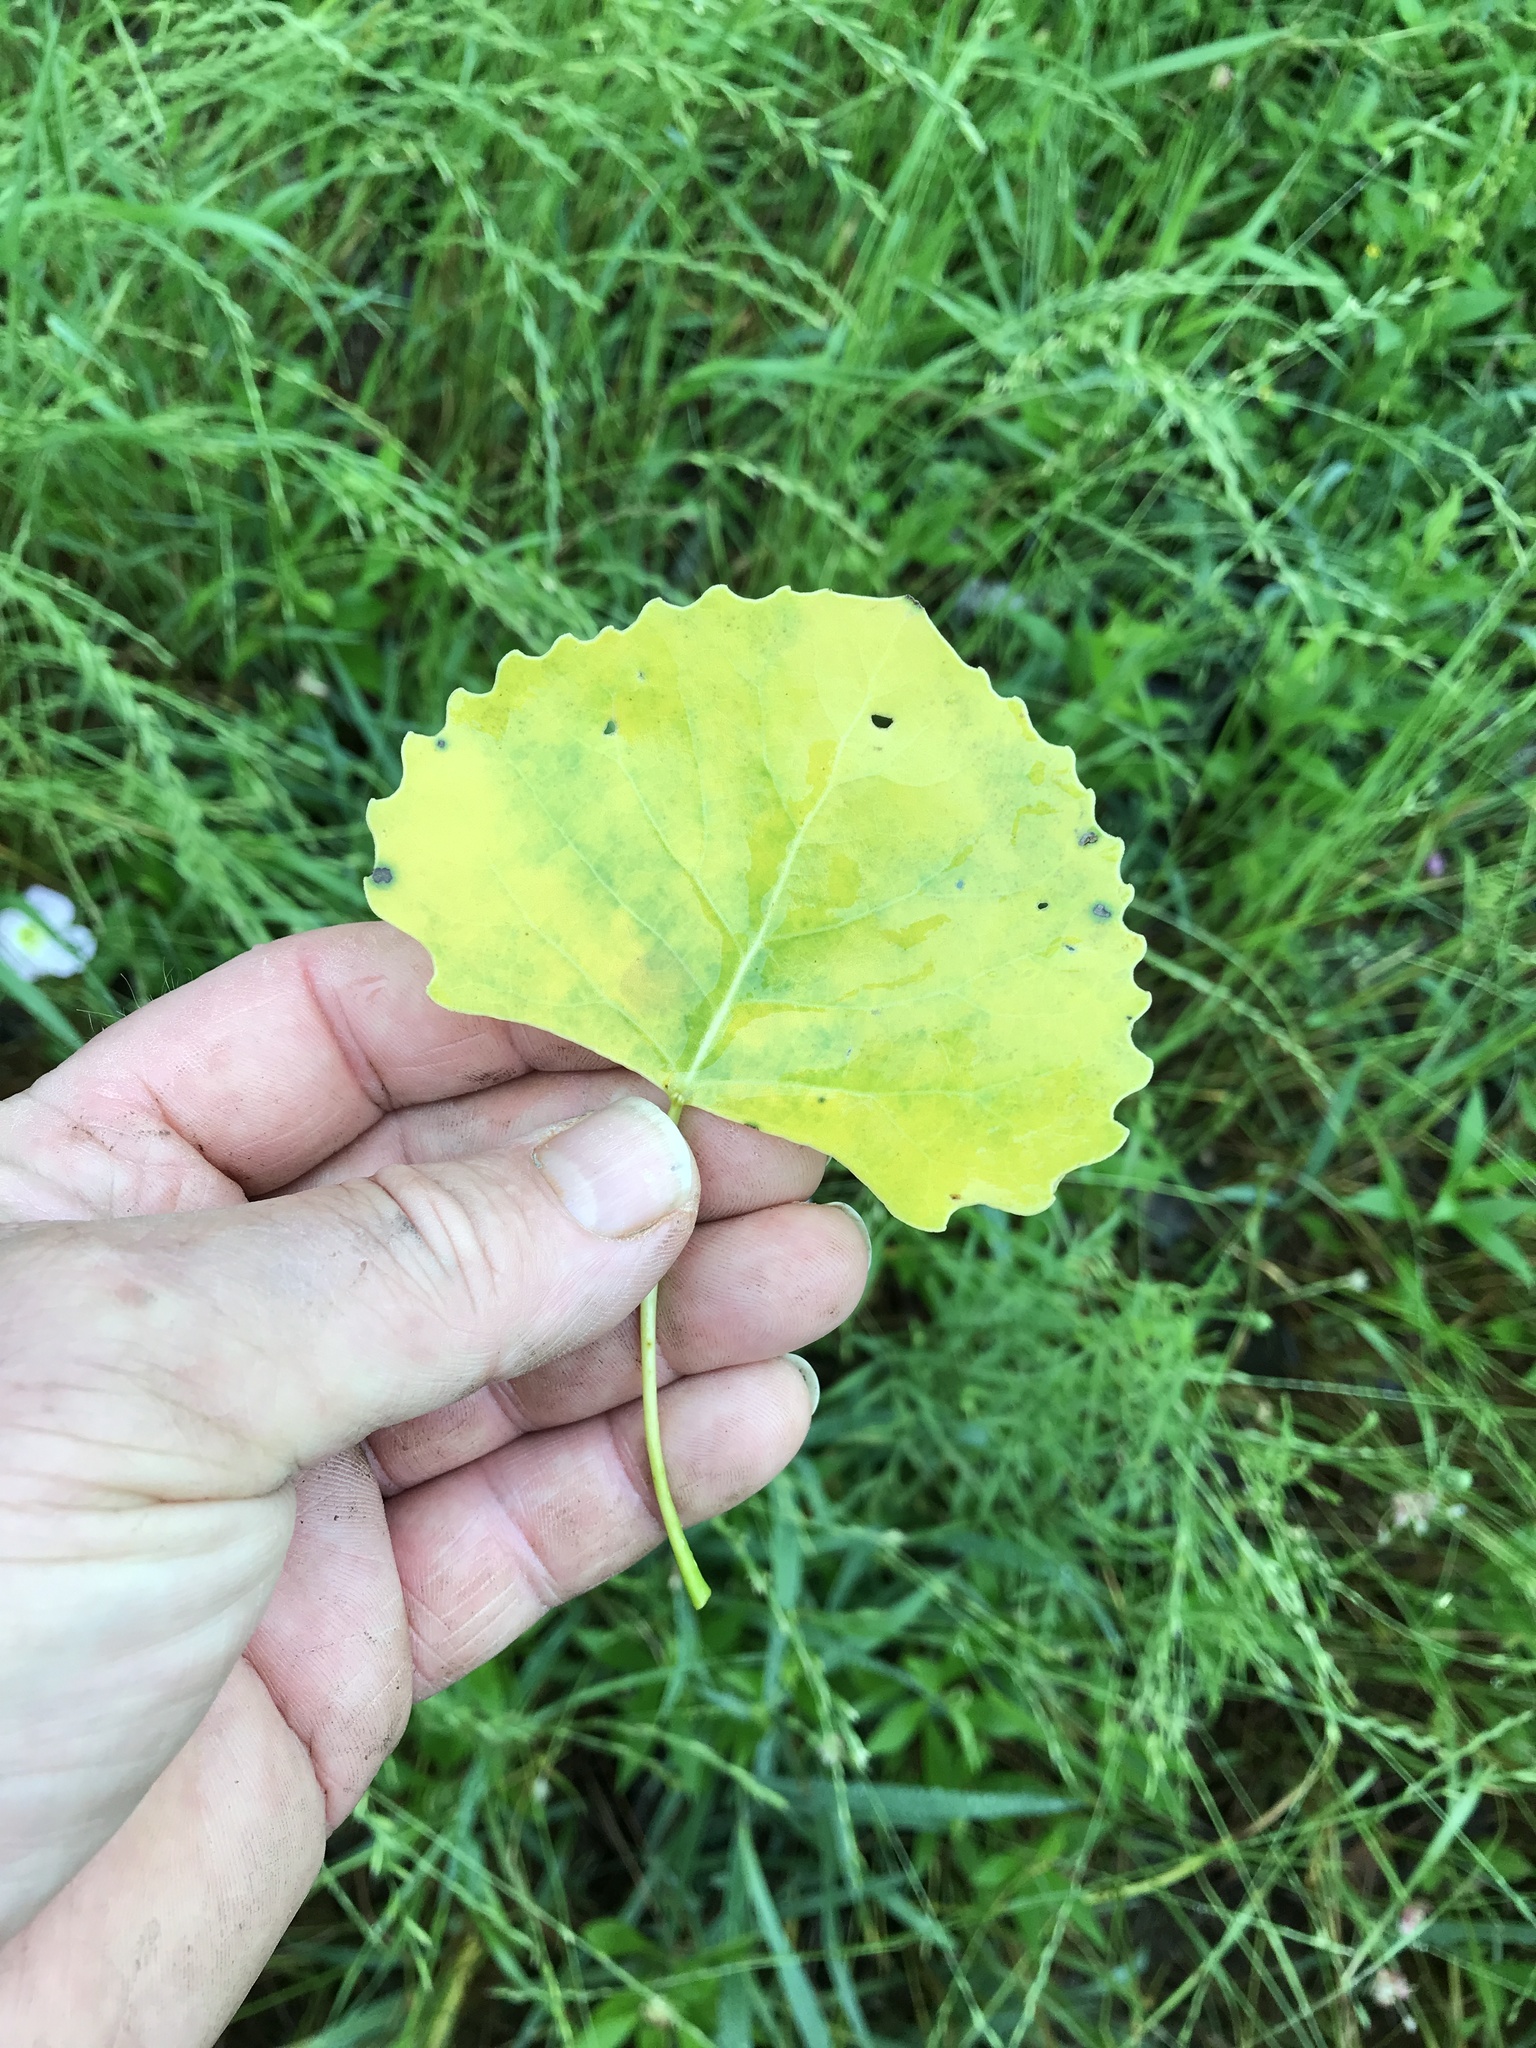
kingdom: Plantae
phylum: Tracheophyta
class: Magnoliopsida
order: Malpighiales
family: Salicaceae
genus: Populus
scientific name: Populus deltoides
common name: Eastern cottonwood
